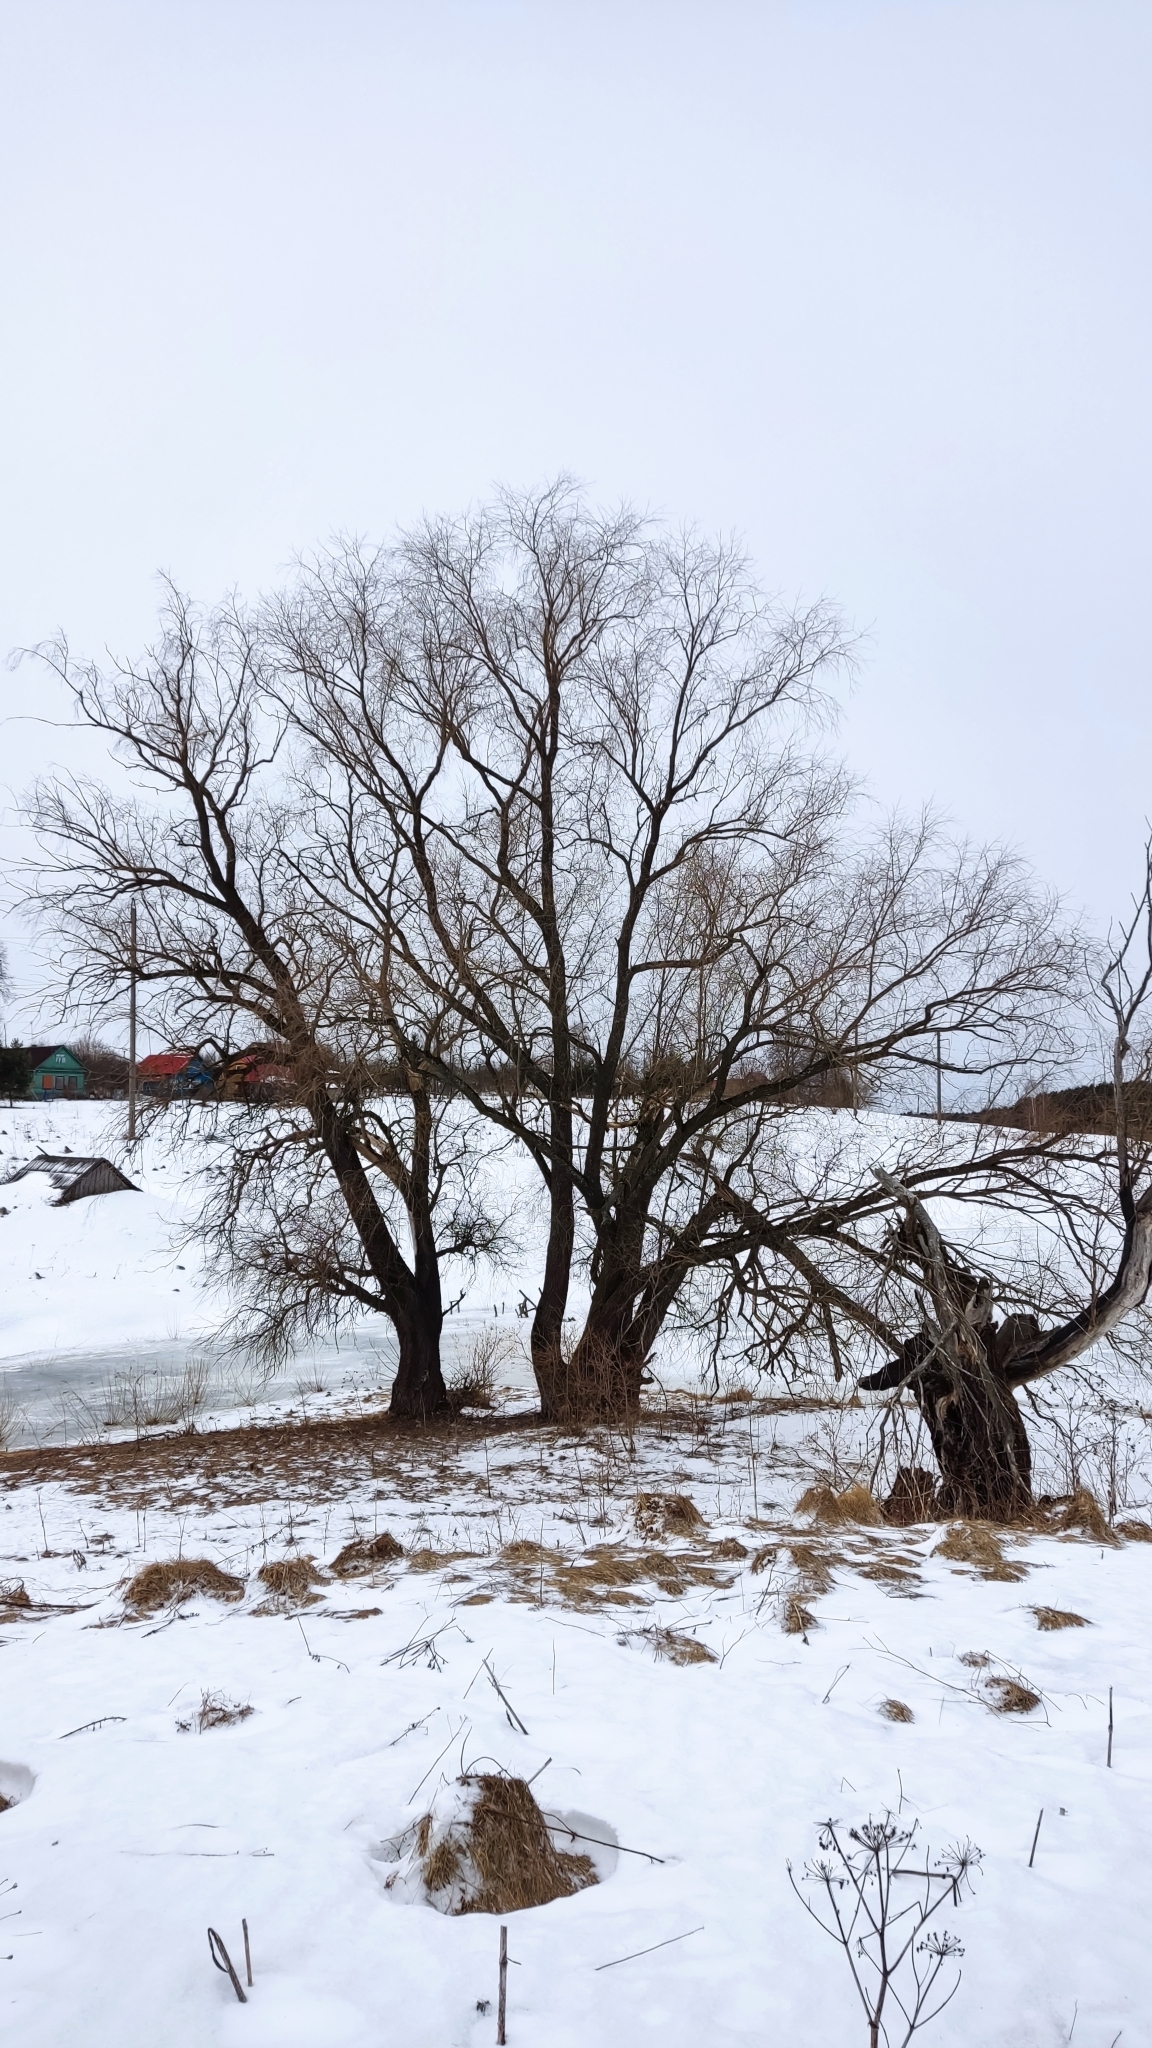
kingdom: Plantae
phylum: Tracheophyta
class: Magnoliopsida
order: Malpighiales
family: Salicaceae
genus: Salix
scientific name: Salix fragilis
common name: Crack willow
